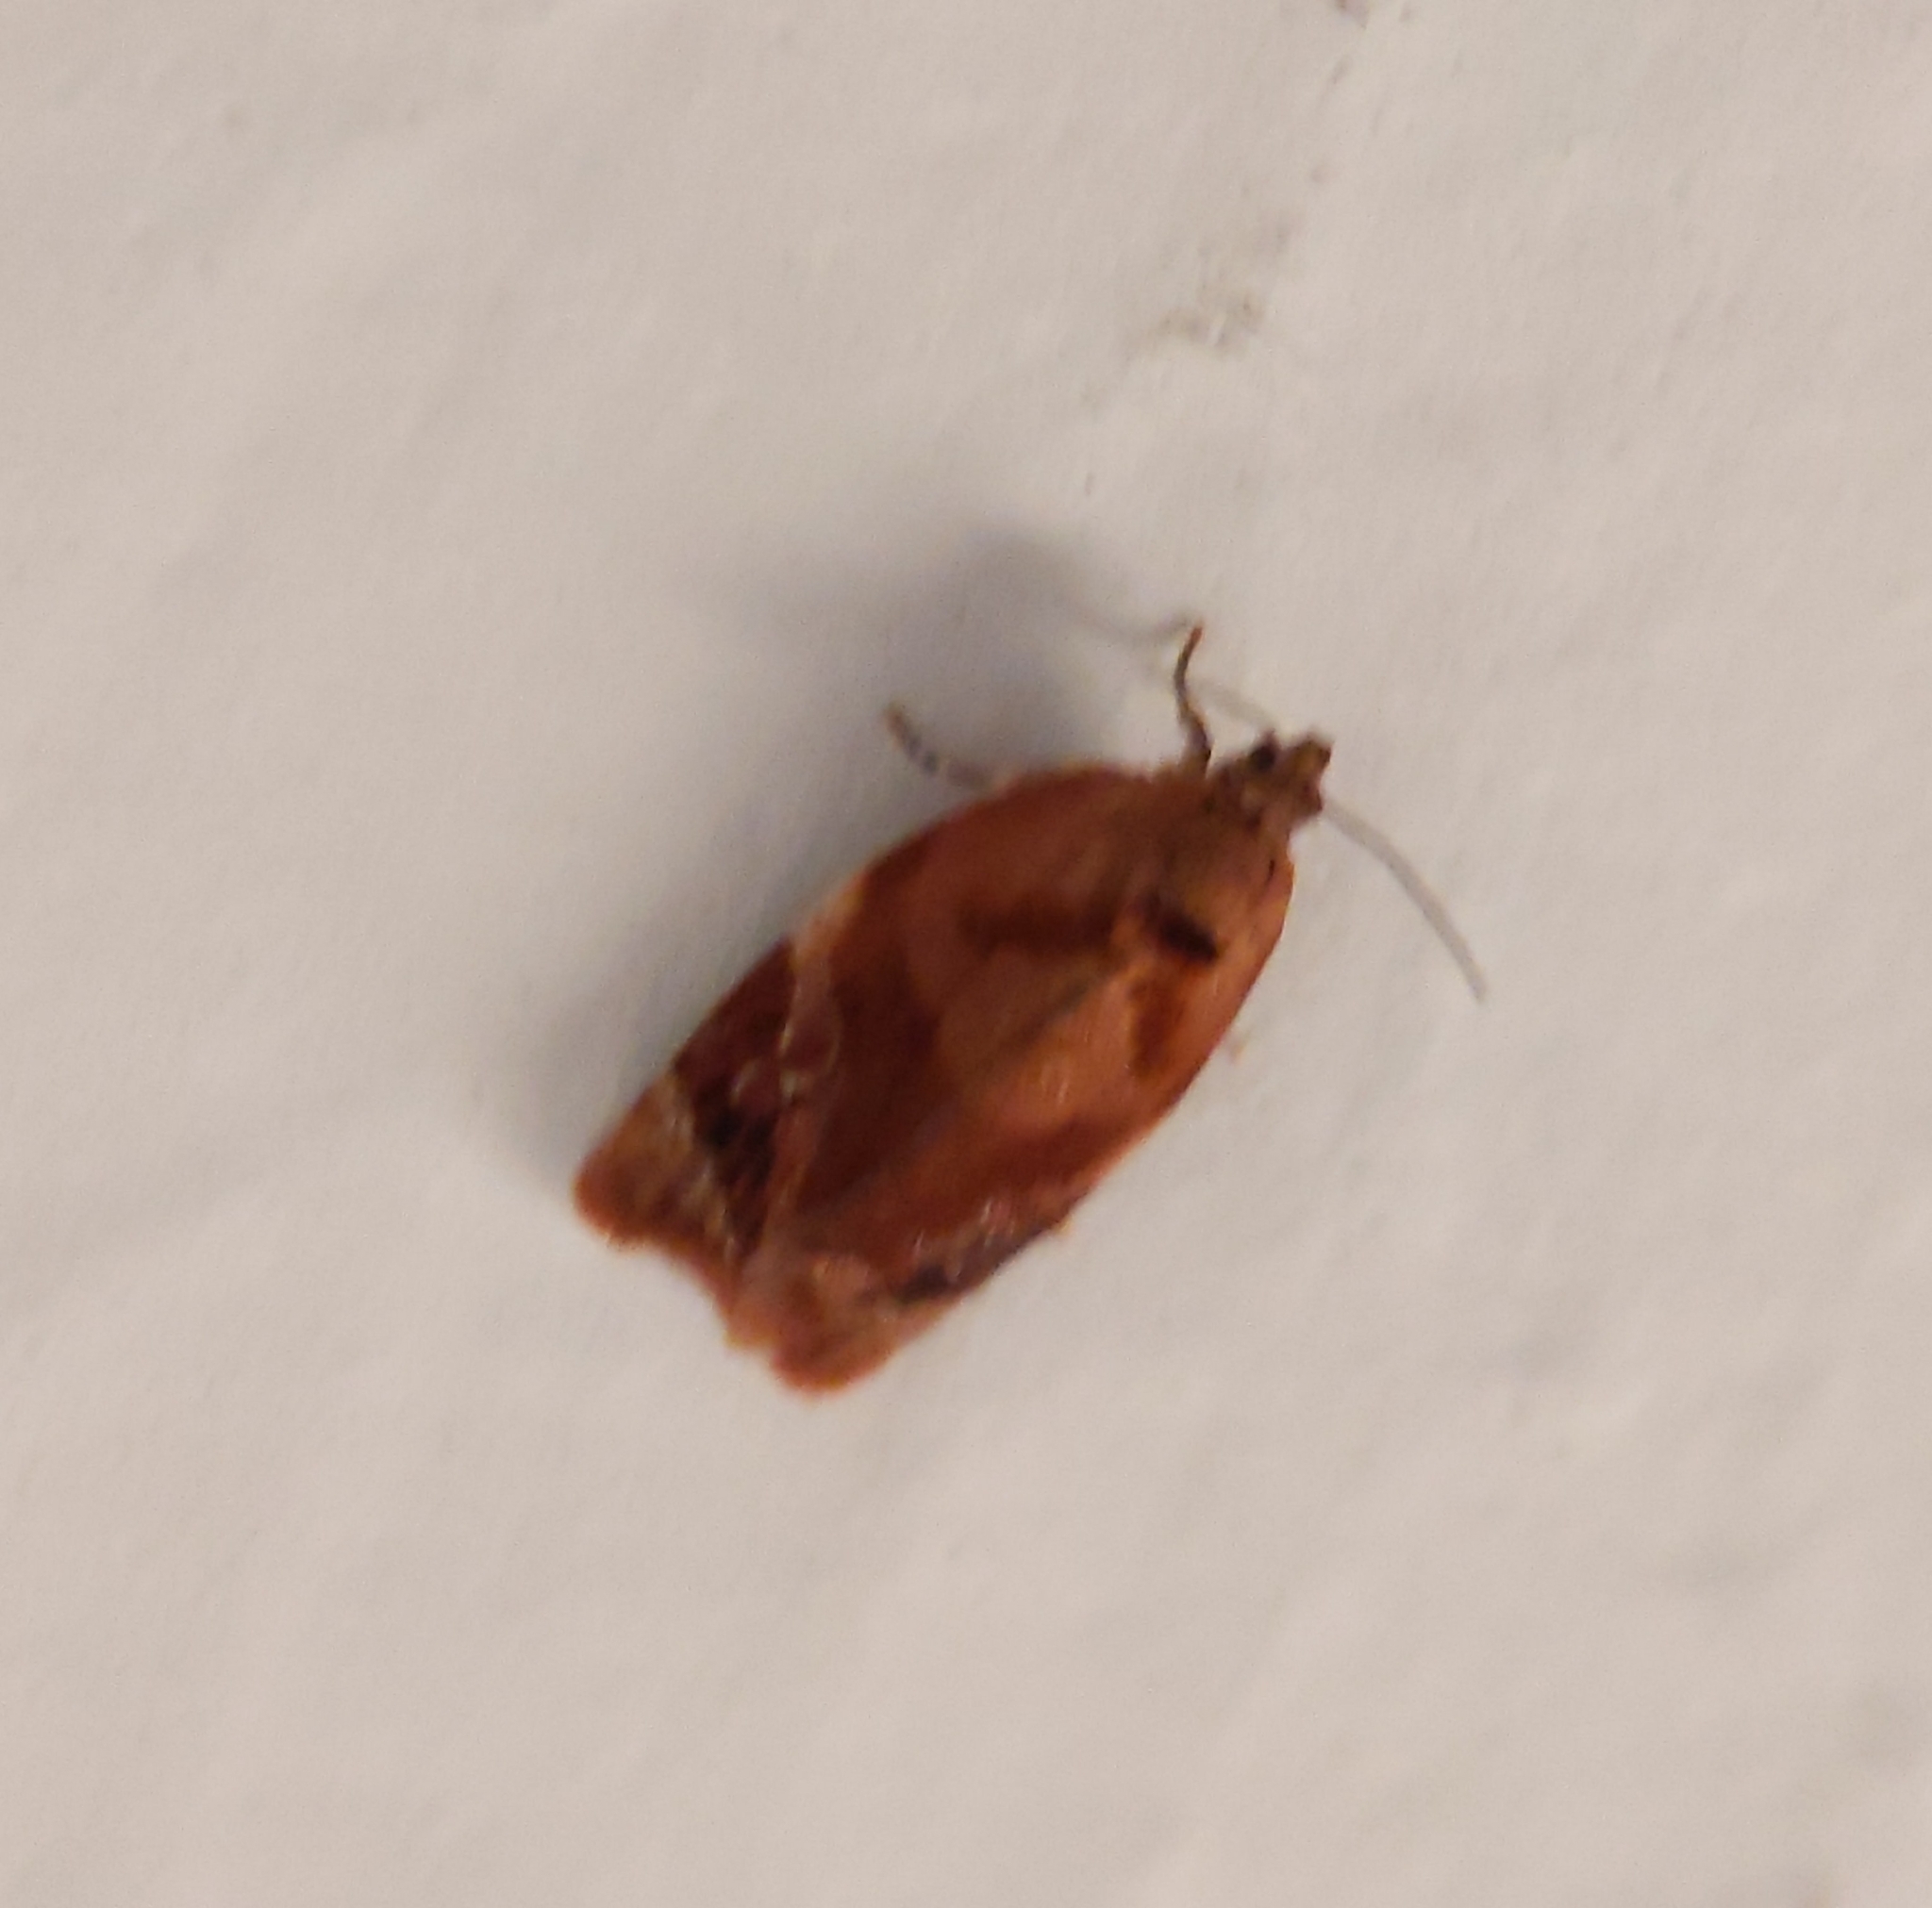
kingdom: Animalia
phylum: Arthropoda
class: Insecta
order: Lepidoptera
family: Tortricidae
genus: Ditula
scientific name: Ditula angustiorana
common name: Red-barred tortrix
